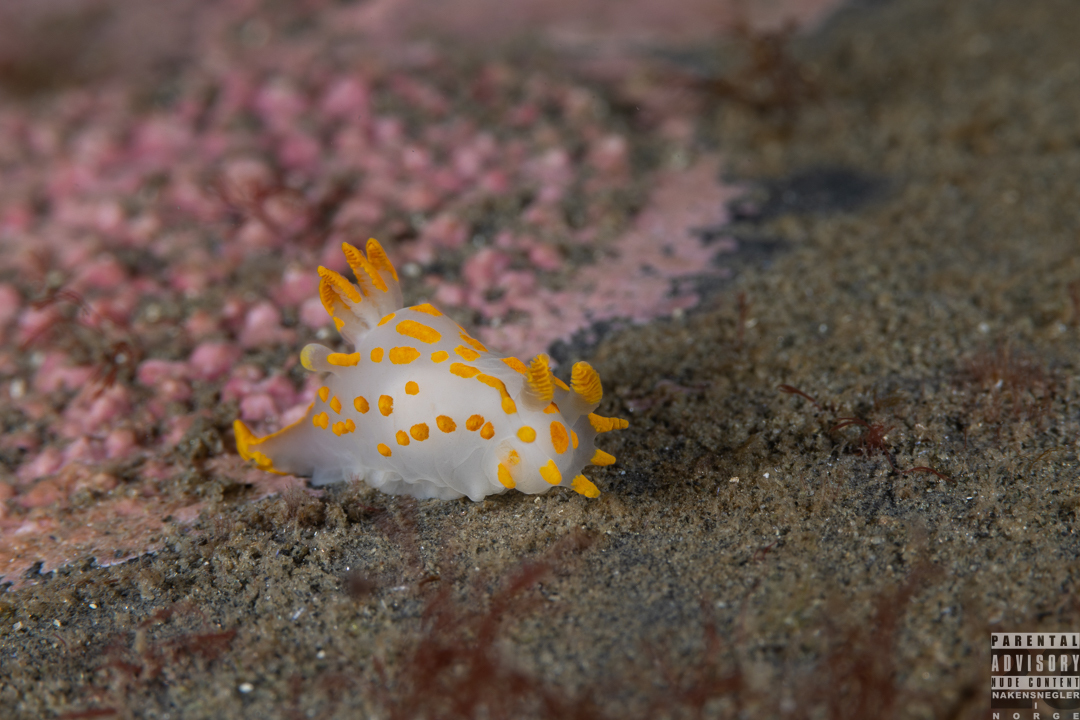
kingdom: Animalia
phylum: Mollusca
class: Gastropoda
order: Nudibranchia
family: Polyceridae
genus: Polycera
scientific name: Polycera quadrilineata
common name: Four-striped polycera
